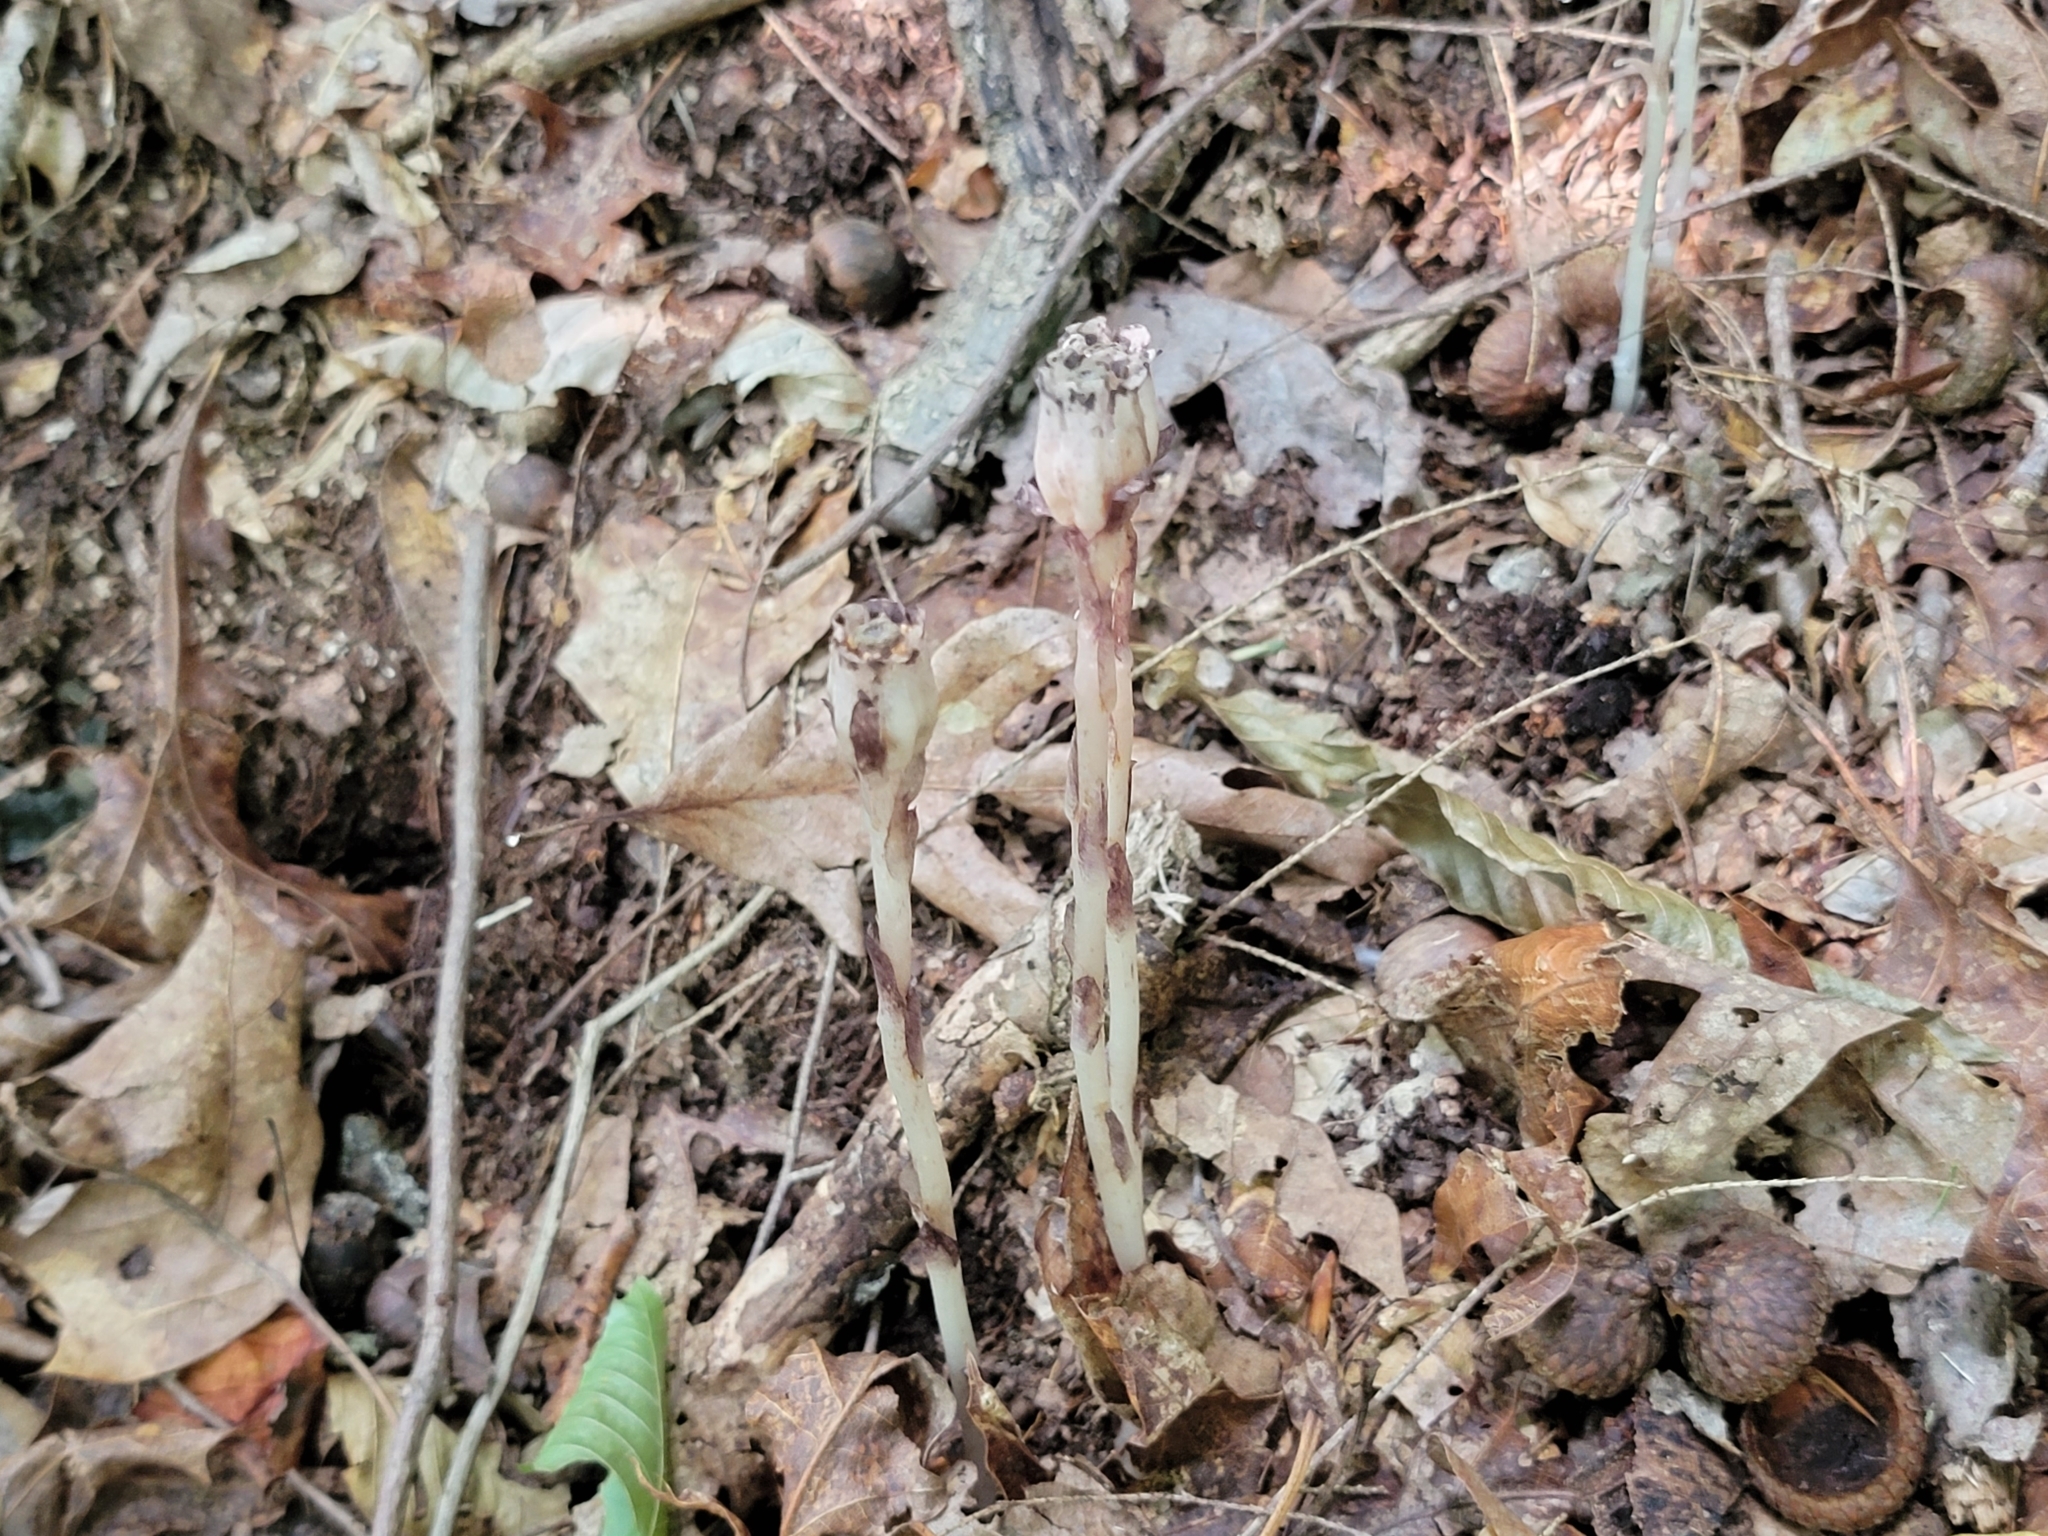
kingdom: Plantae
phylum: Tracheophyta
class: Magnoliopsida
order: Ericales
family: Ericaceae
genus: Monotropa
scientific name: Monotropa uniflora
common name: Convulsion root
